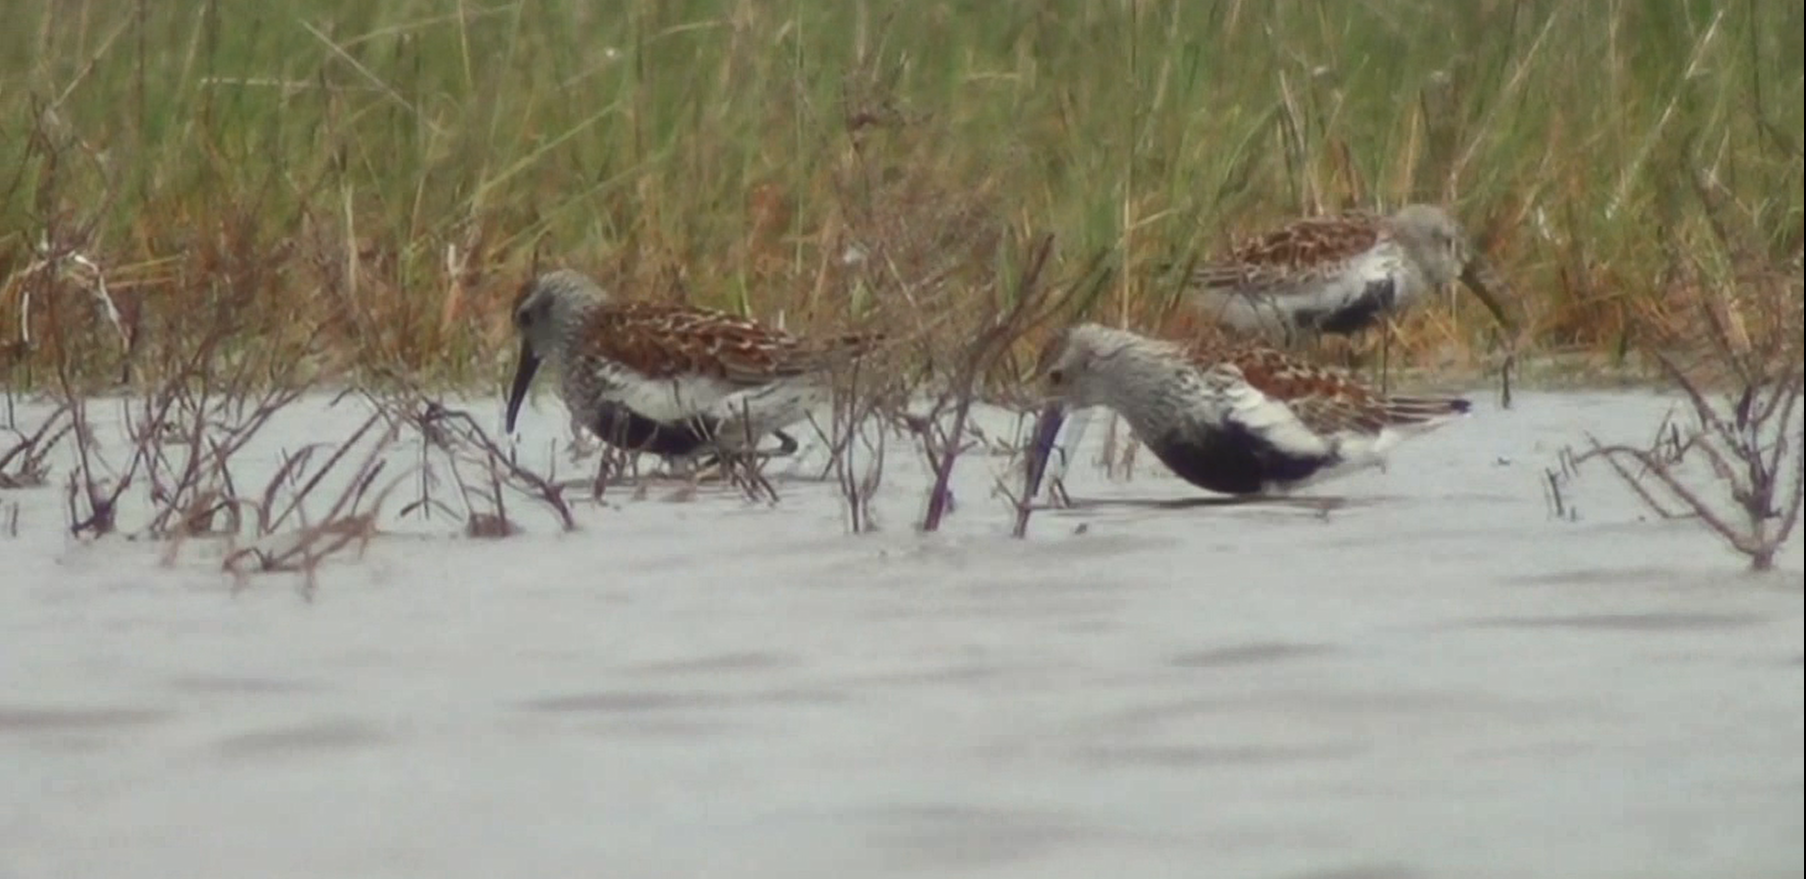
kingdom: Animalia
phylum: Chordata
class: Aves
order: Charadriiformes
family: Scolopacidae
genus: Calidris
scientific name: Calidris alpina
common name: Dunlin
